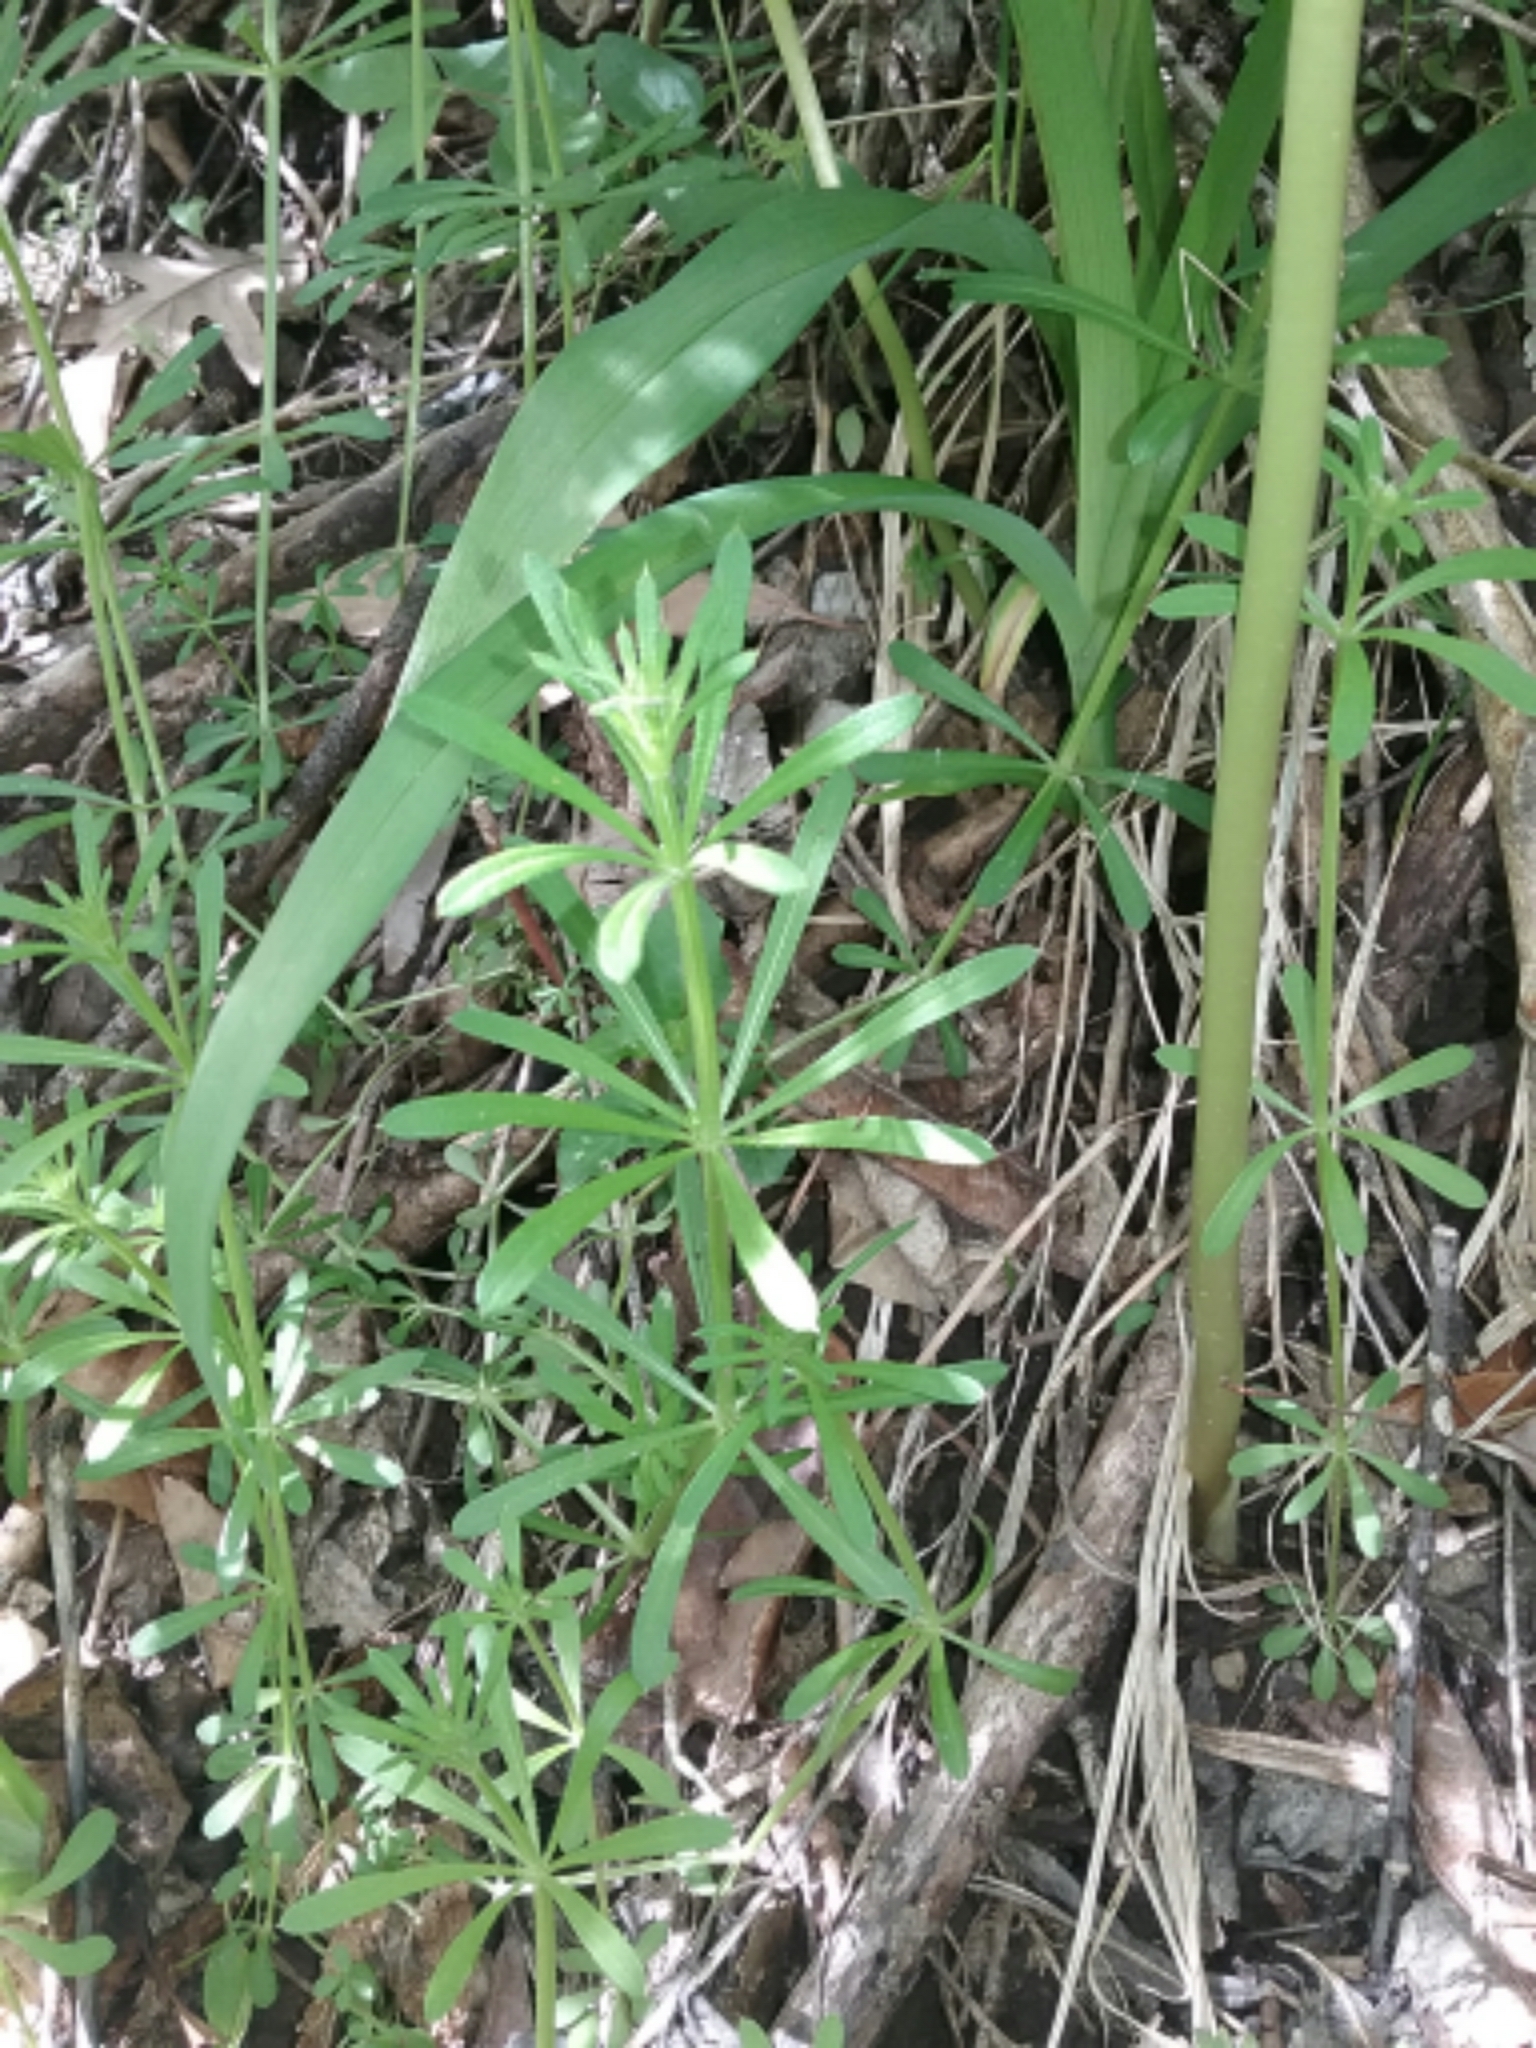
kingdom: Plantae
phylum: Tracheophyta
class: Magnoliopsida
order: Gentianales
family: Rubiaceae
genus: Galium
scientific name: Galium aparine
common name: Cleavers
